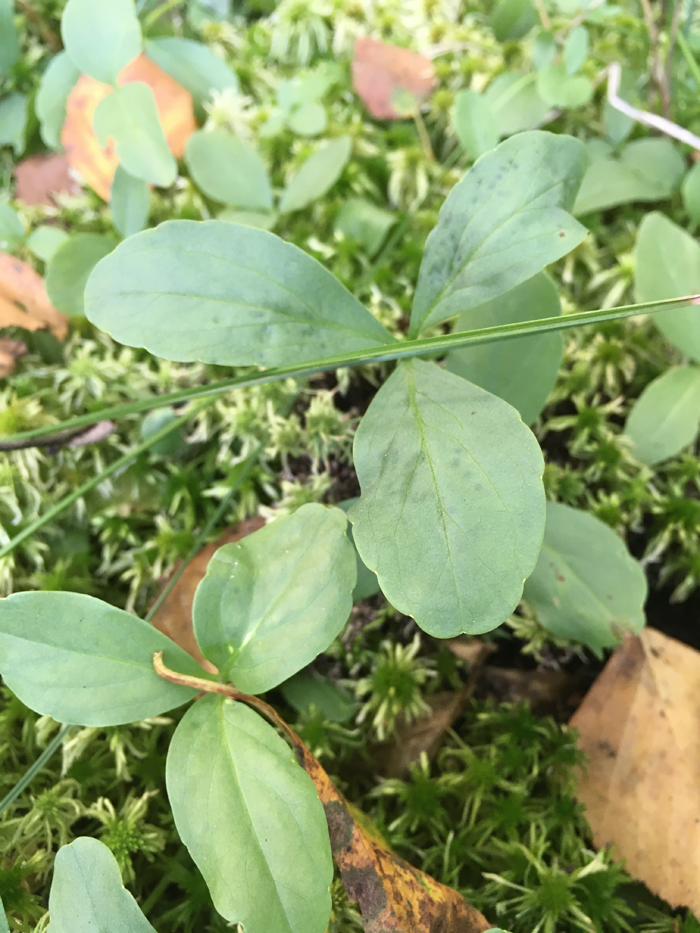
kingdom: Plantae
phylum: Tracheophyta
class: Magnoliopsida
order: Asterales
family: Menyanthaceae
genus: Menyanthes
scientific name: Menyanthes trifoliata
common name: Bogbean
